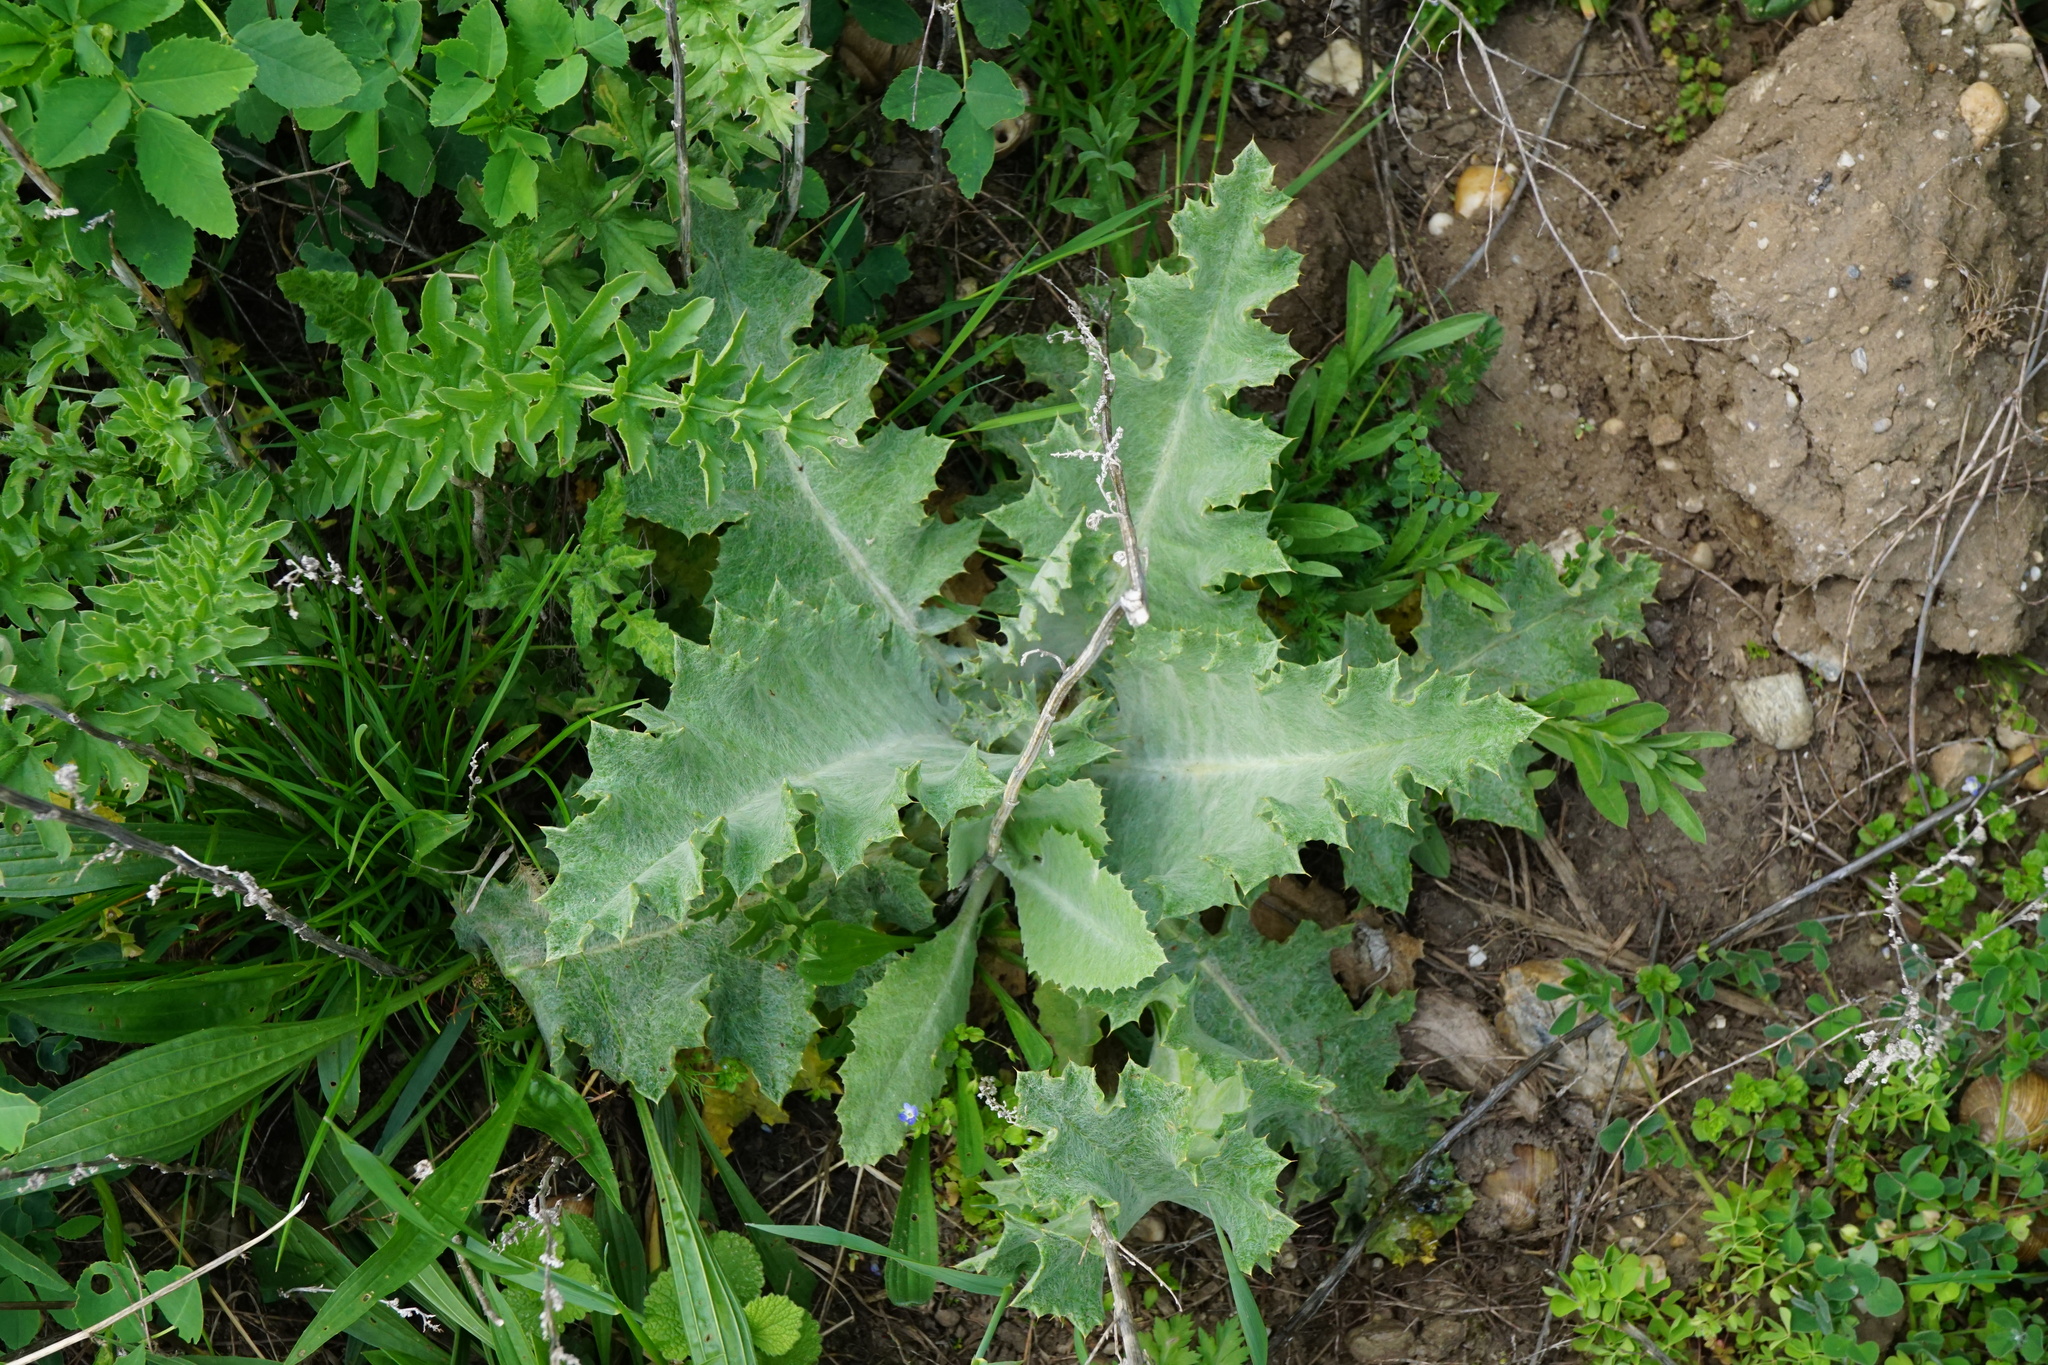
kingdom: Plantae
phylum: Tracheophyta
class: Magnoliopsida
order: Asterales
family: Asteraceae
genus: Onopordum
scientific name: Onopordum acanthium
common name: Scotch thistle
